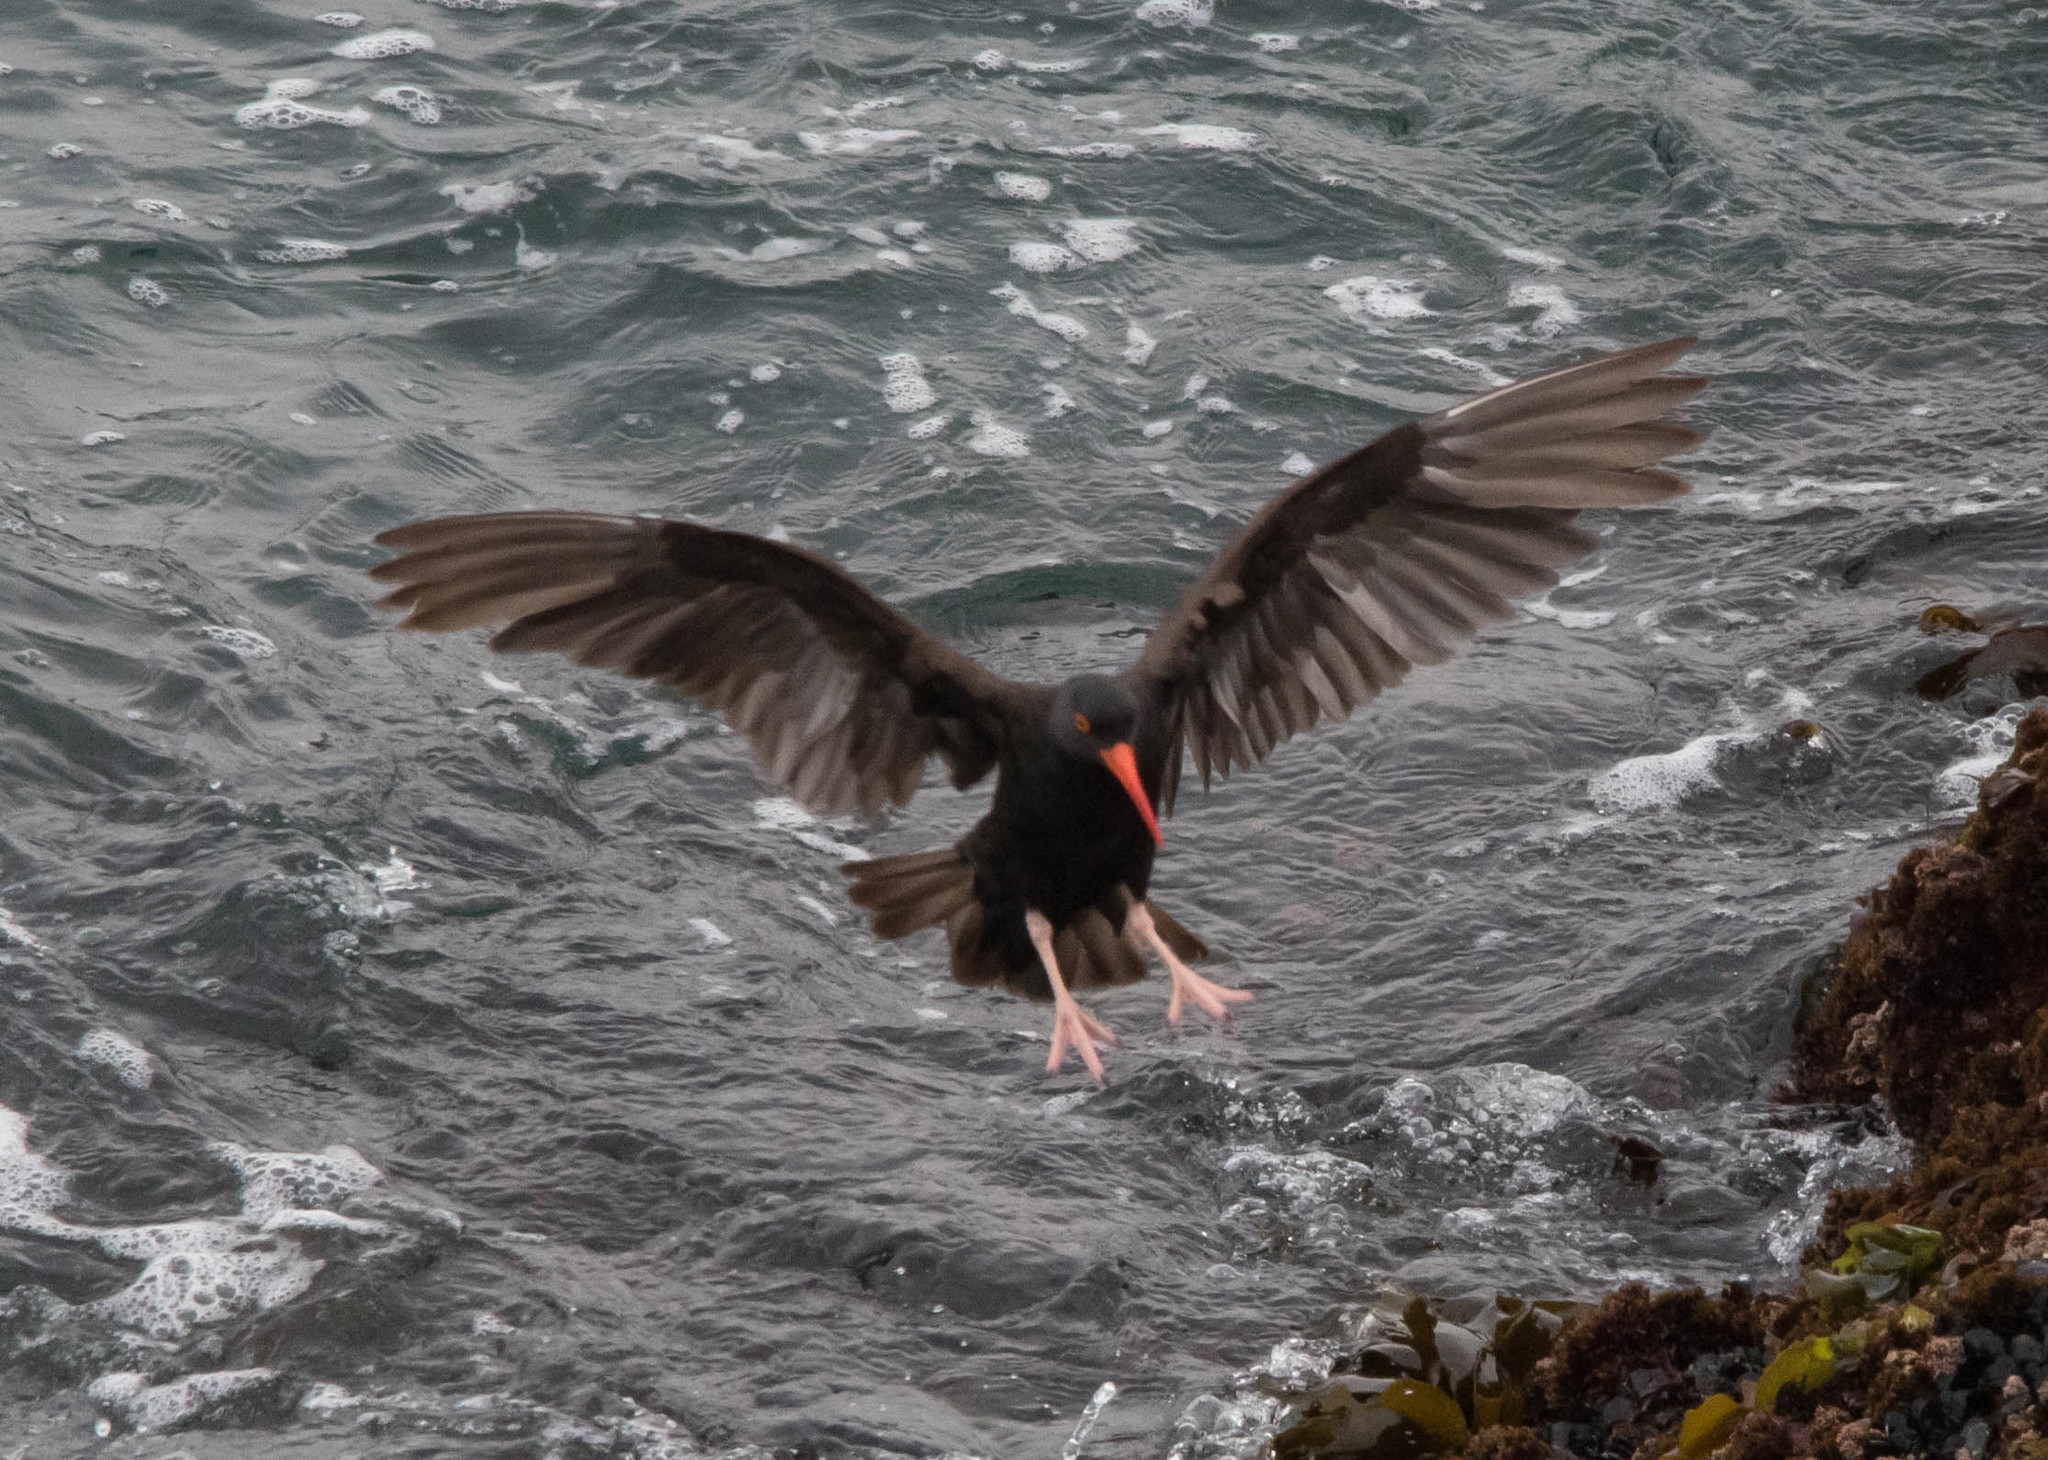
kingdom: Animalia
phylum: Chordata
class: Aves
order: Charadriiformes
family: Haematopodidae
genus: Haematopus
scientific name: Haematopus bachmani
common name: Black oystercatcher
